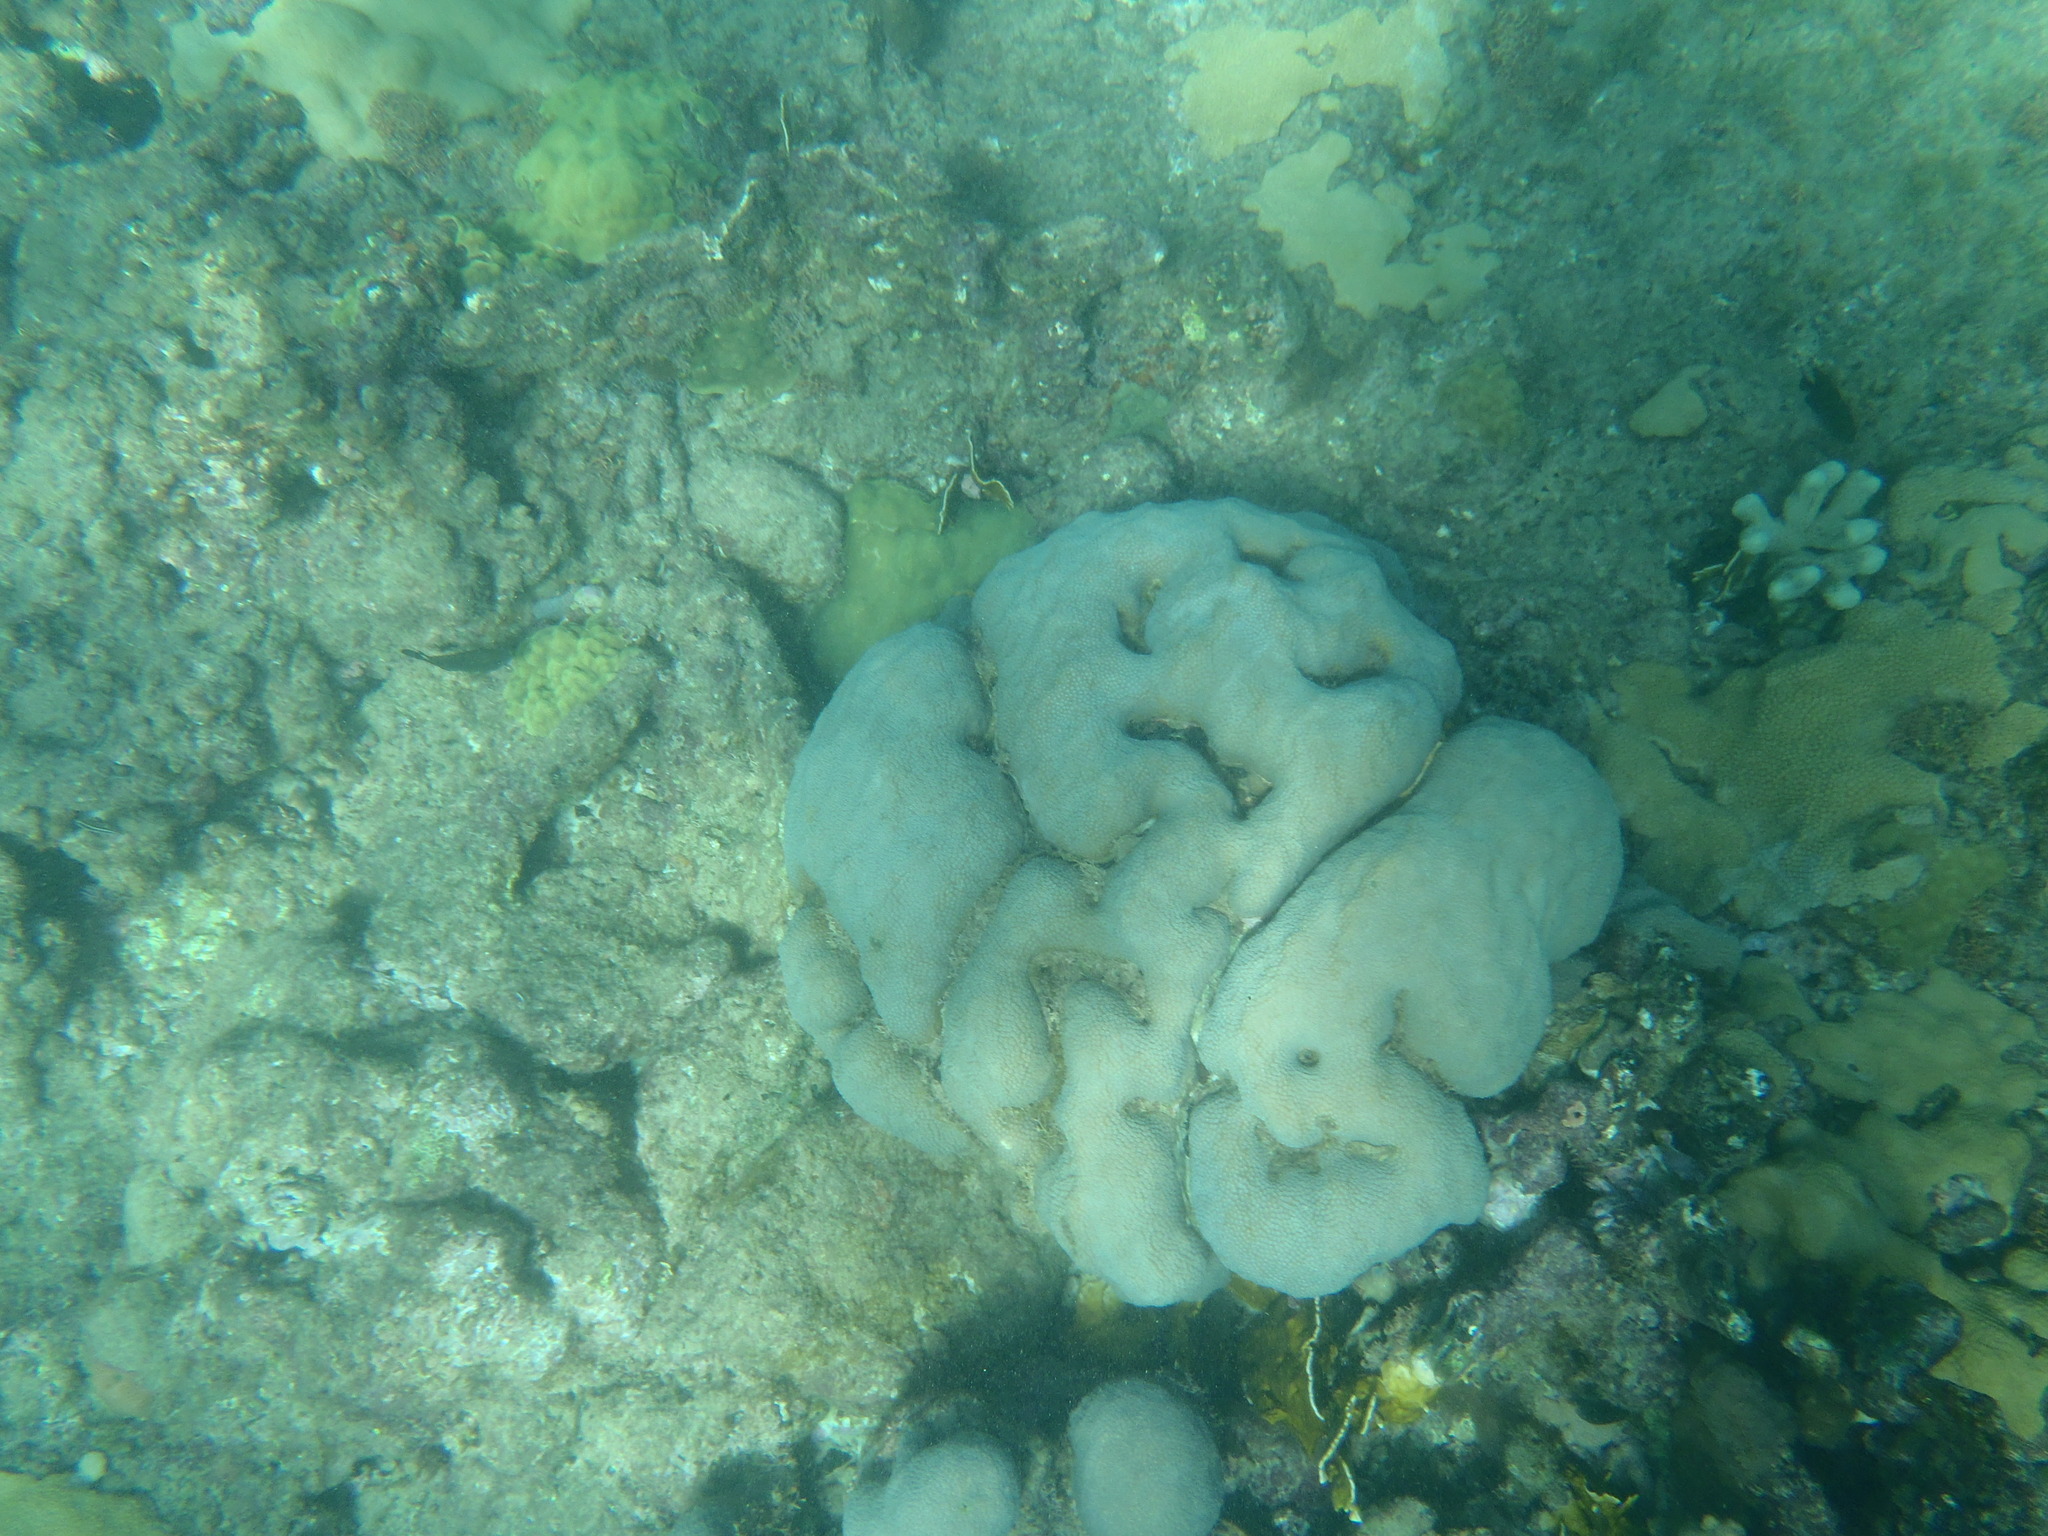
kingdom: Animalia
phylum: Cnidaria
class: Anthozoa
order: Scleractinia
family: Poritidae
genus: Porites
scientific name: Porites astreoides
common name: Mustard hill coral
